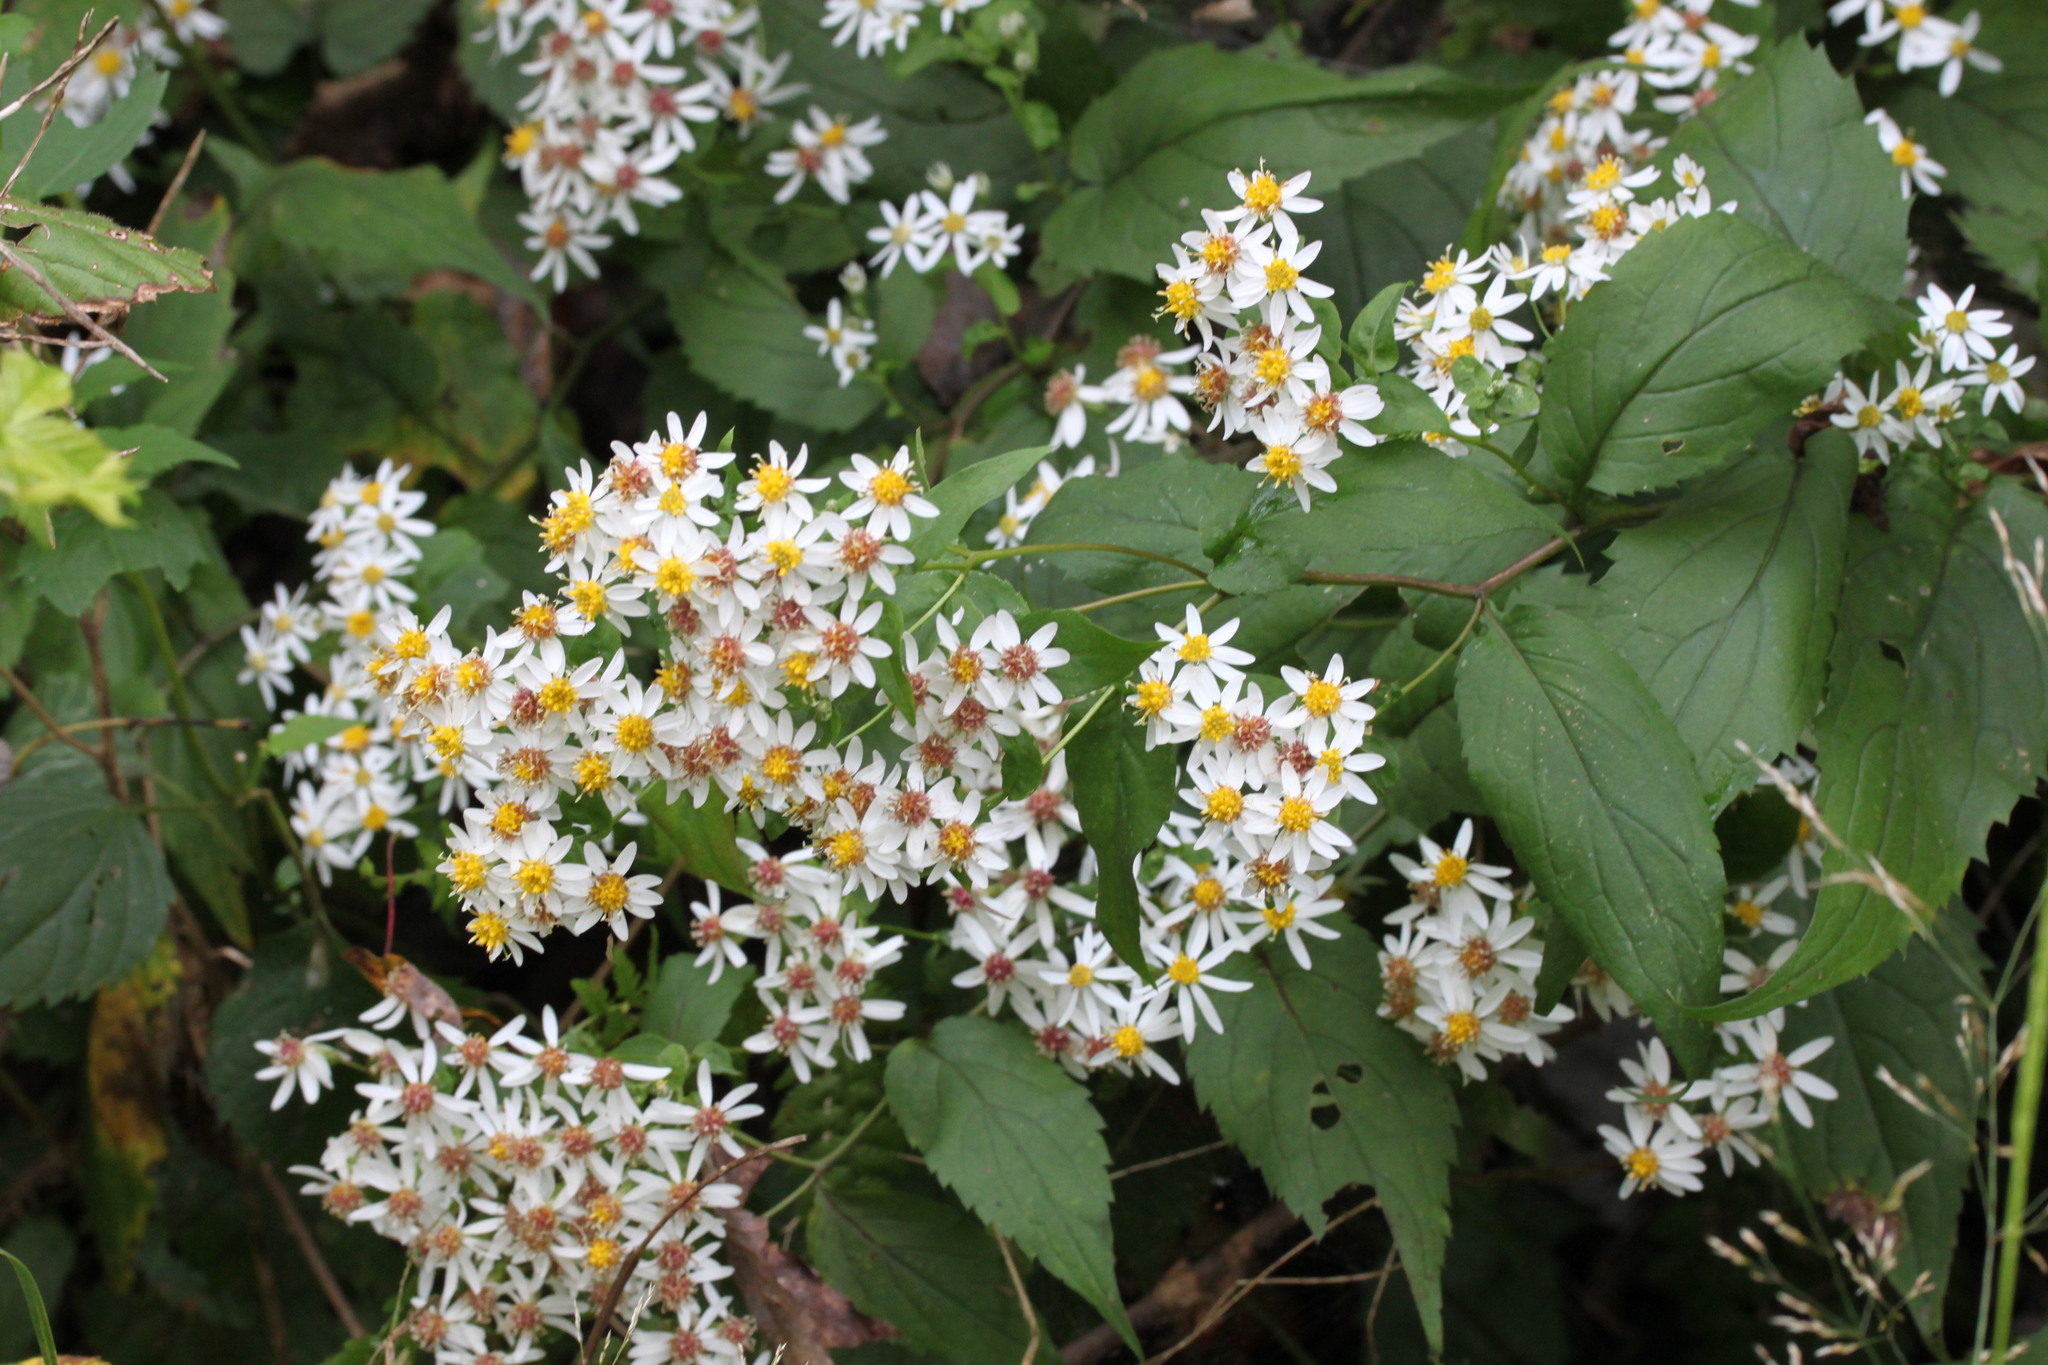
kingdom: Plantae
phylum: Tracheophyta
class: Magnoliopsida
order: Asterales
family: Asteraceae
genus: Eurybia
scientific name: Eurybia divaricata
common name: White wood aster
